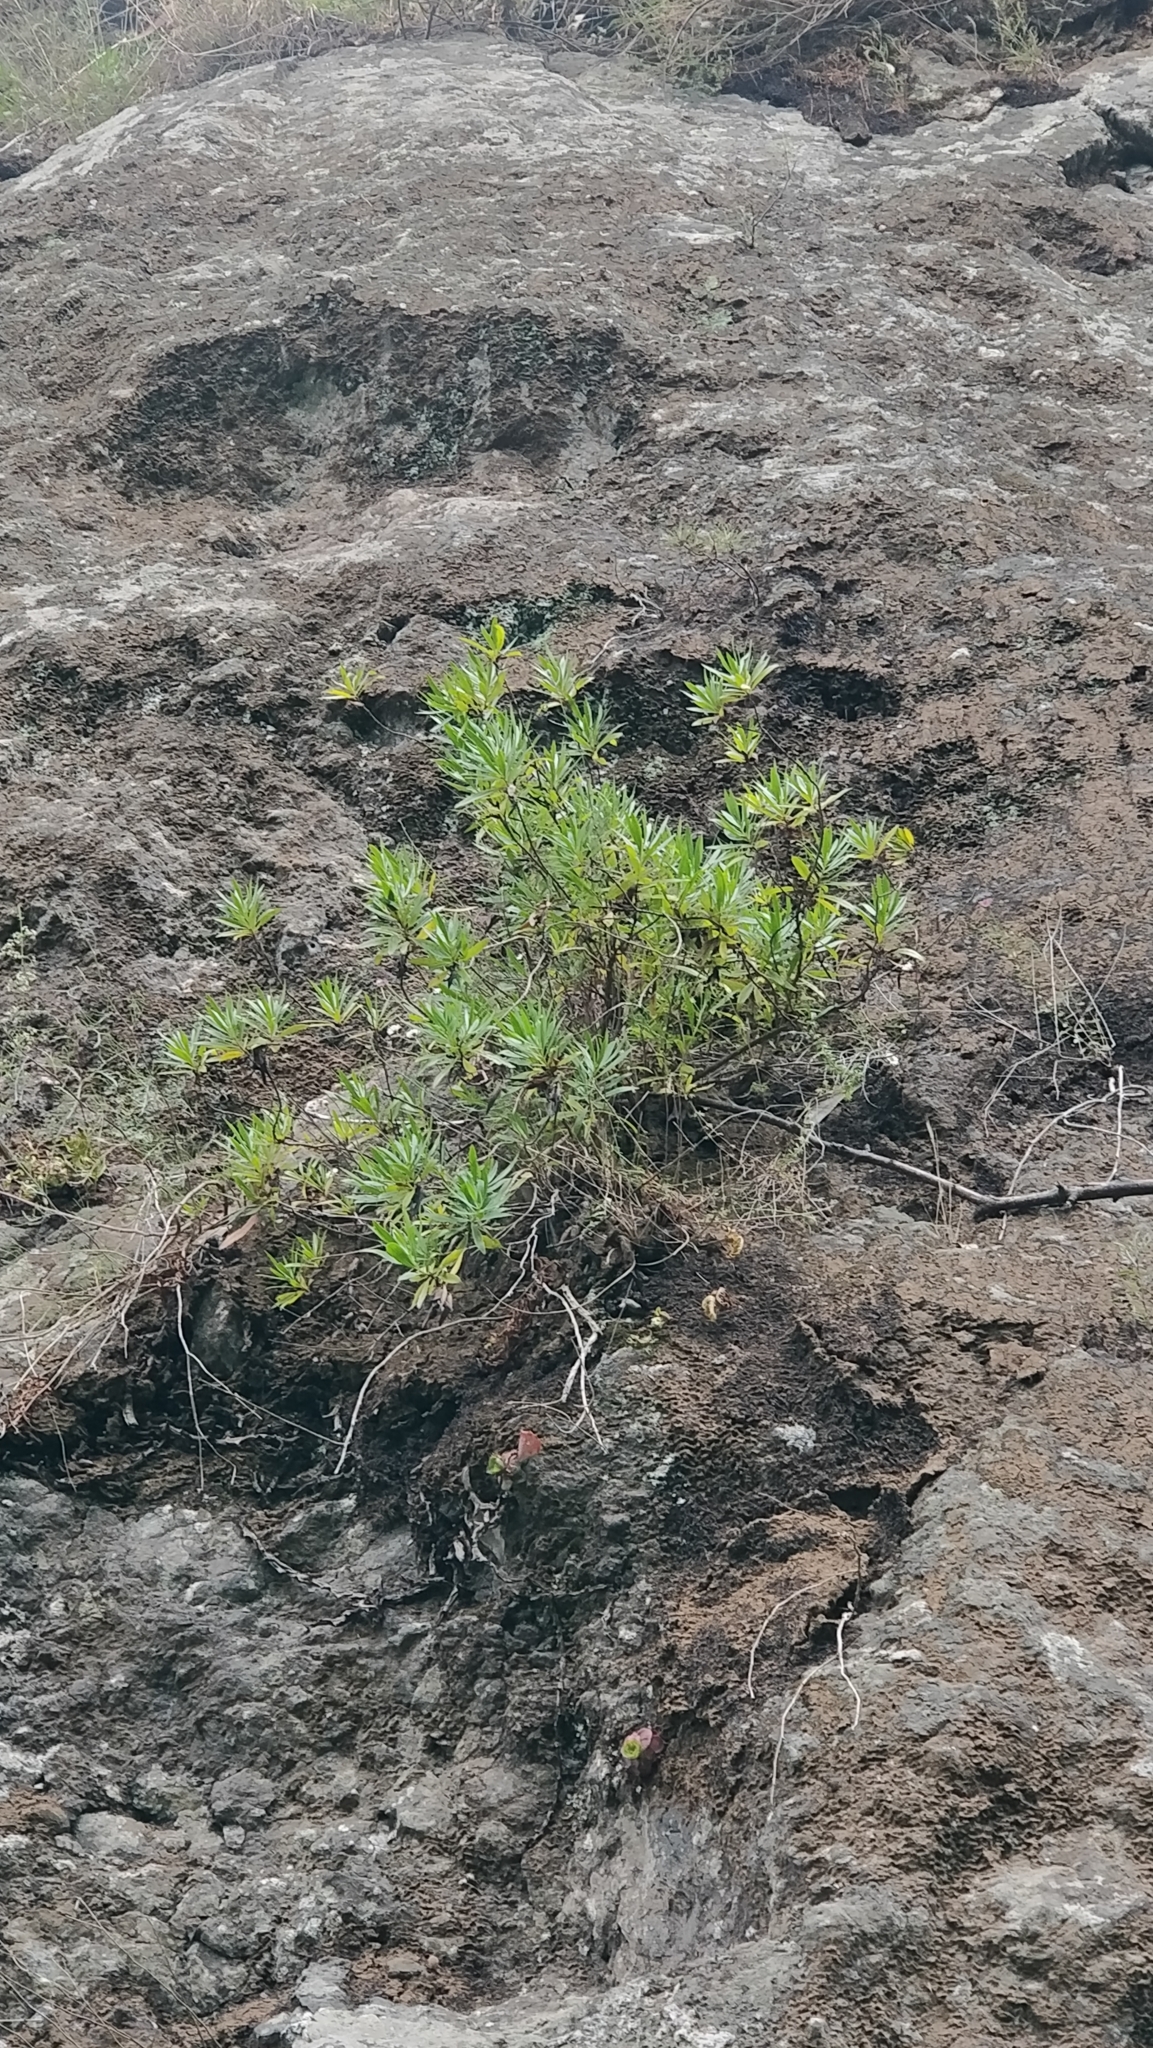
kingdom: Plantae
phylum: Tracheophyta
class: Magnoliopsida
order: Lamiales
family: Plantaginaceae
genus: Globularia
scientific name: Globularia salicina
